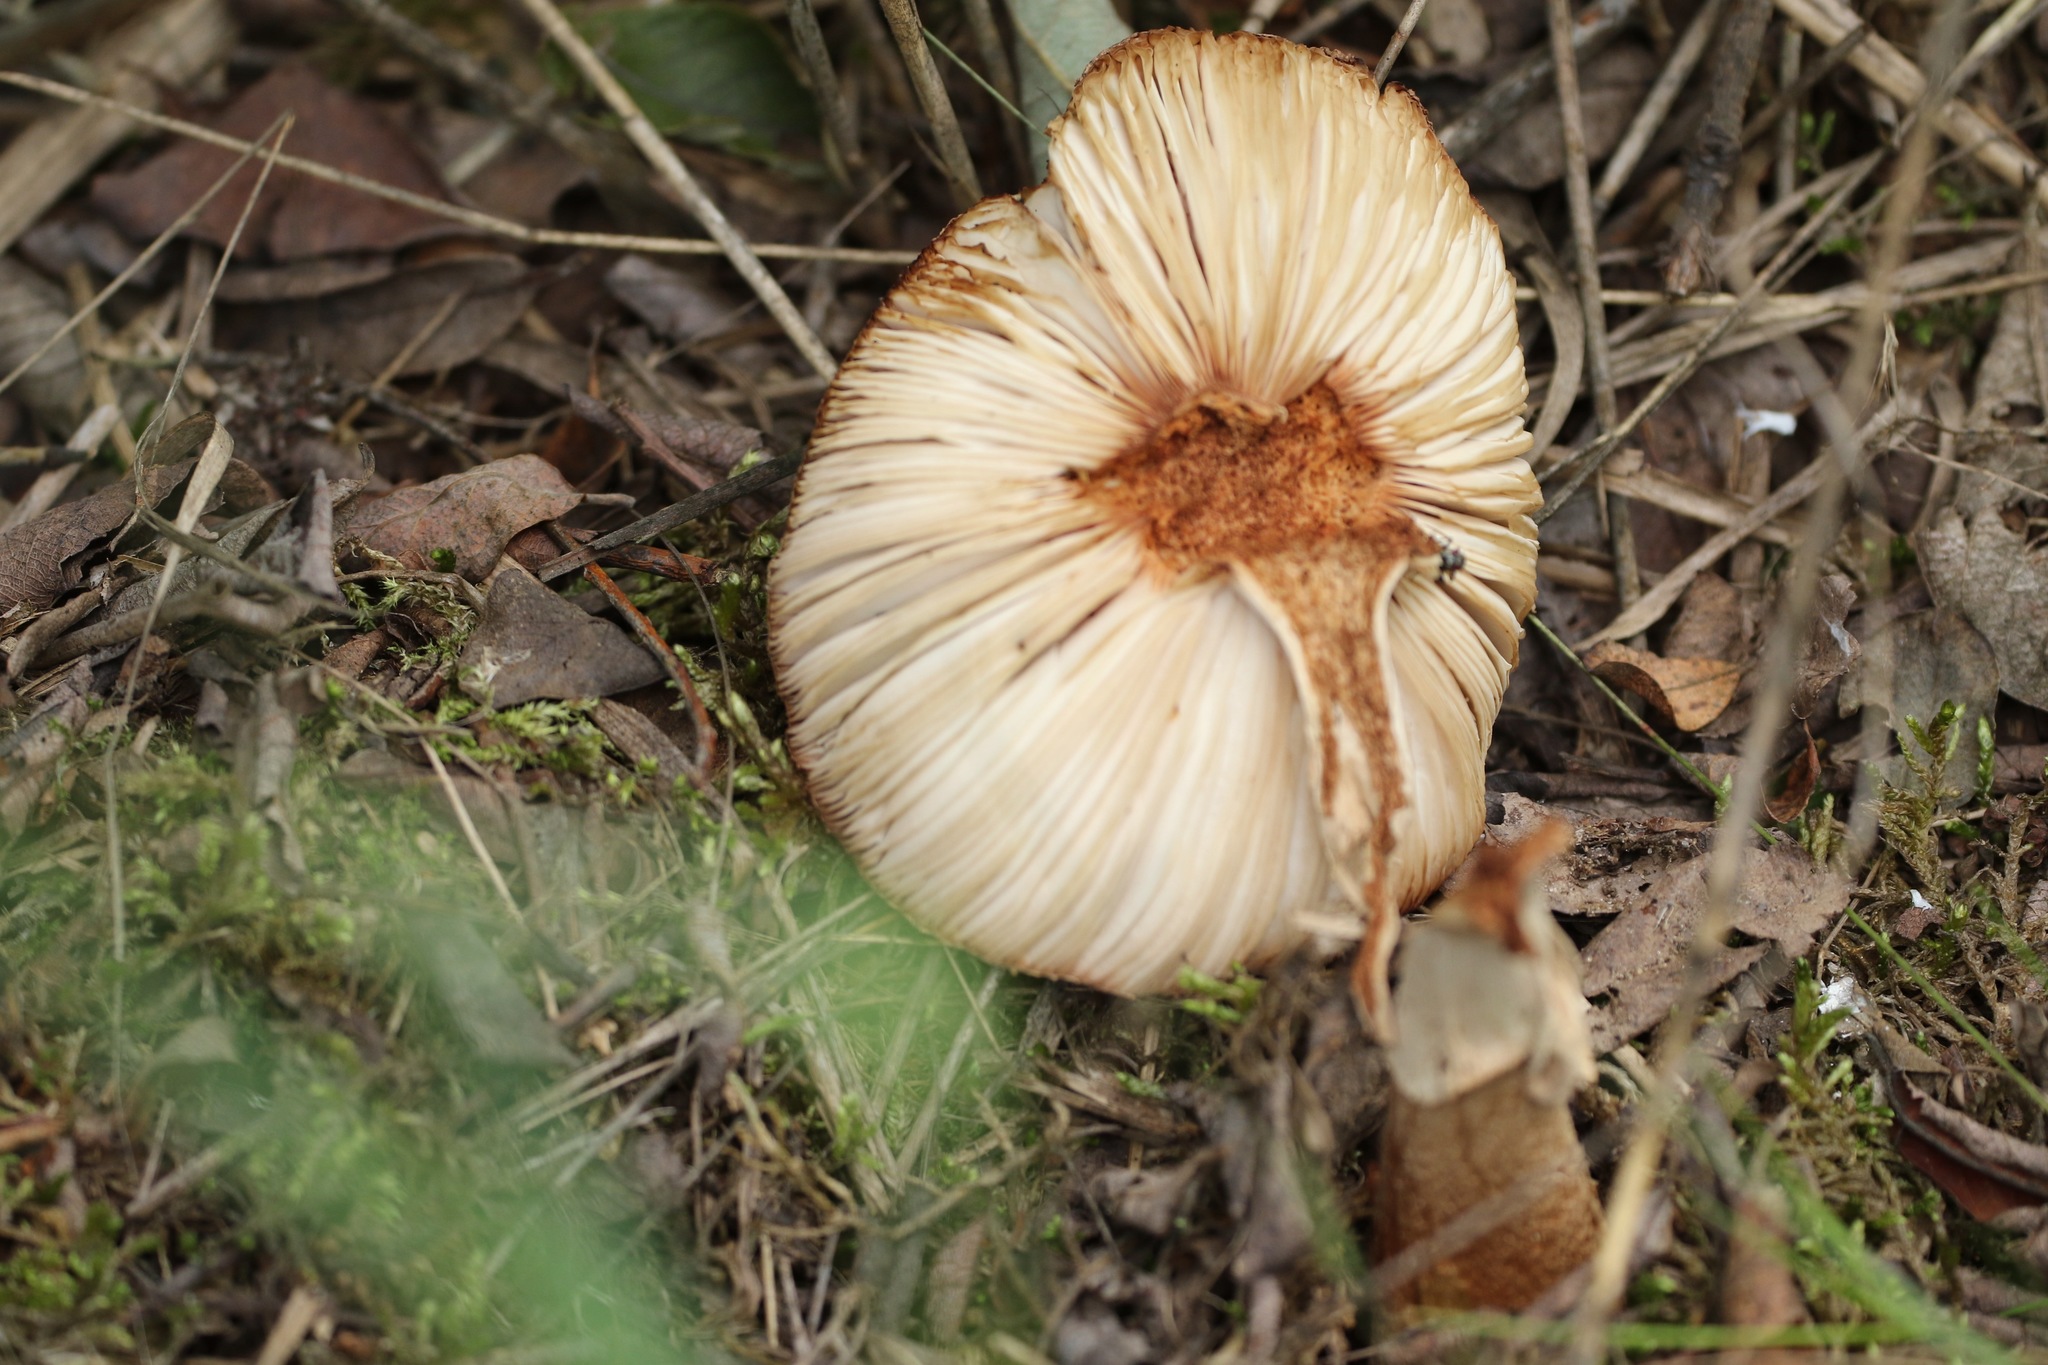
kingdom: Fungi
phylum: Basidiomycota
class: Agaricomycetes
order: Agaricales
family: Amanitaceae
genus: Amanita
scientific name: Amanita rubescens
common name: Blusher
